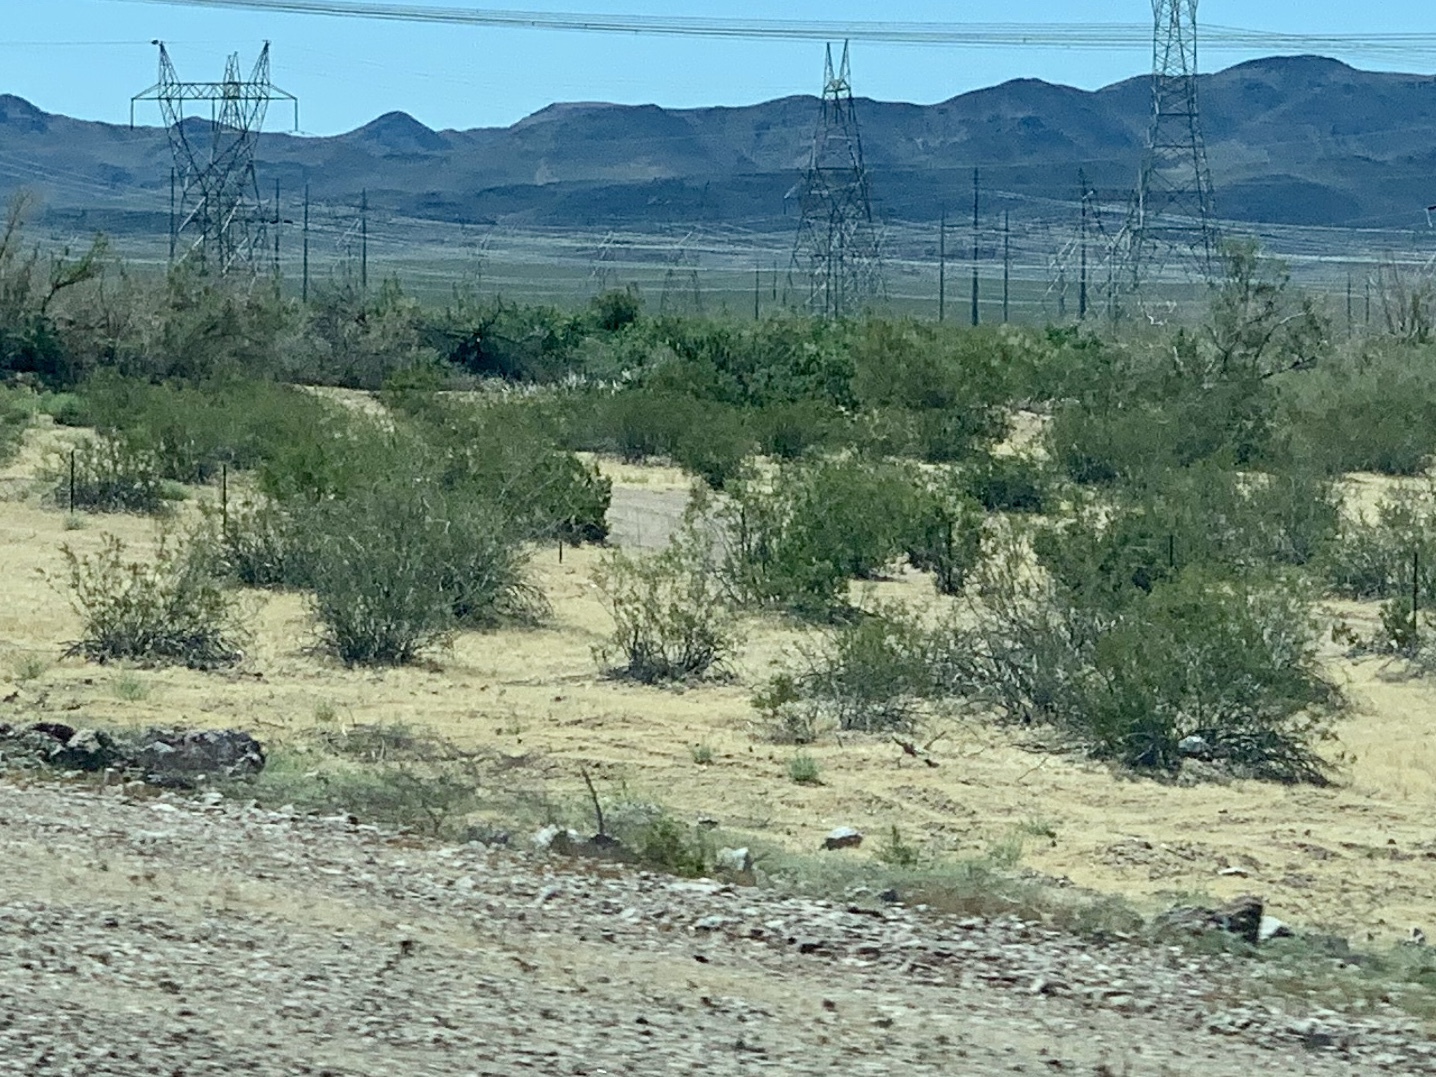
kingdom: Plantae
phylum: Tracheophyta
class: Magnoliopsida
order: Zygophyllales
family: Zygophyllaceae
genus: Larrea
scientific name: Larrea tridentata
